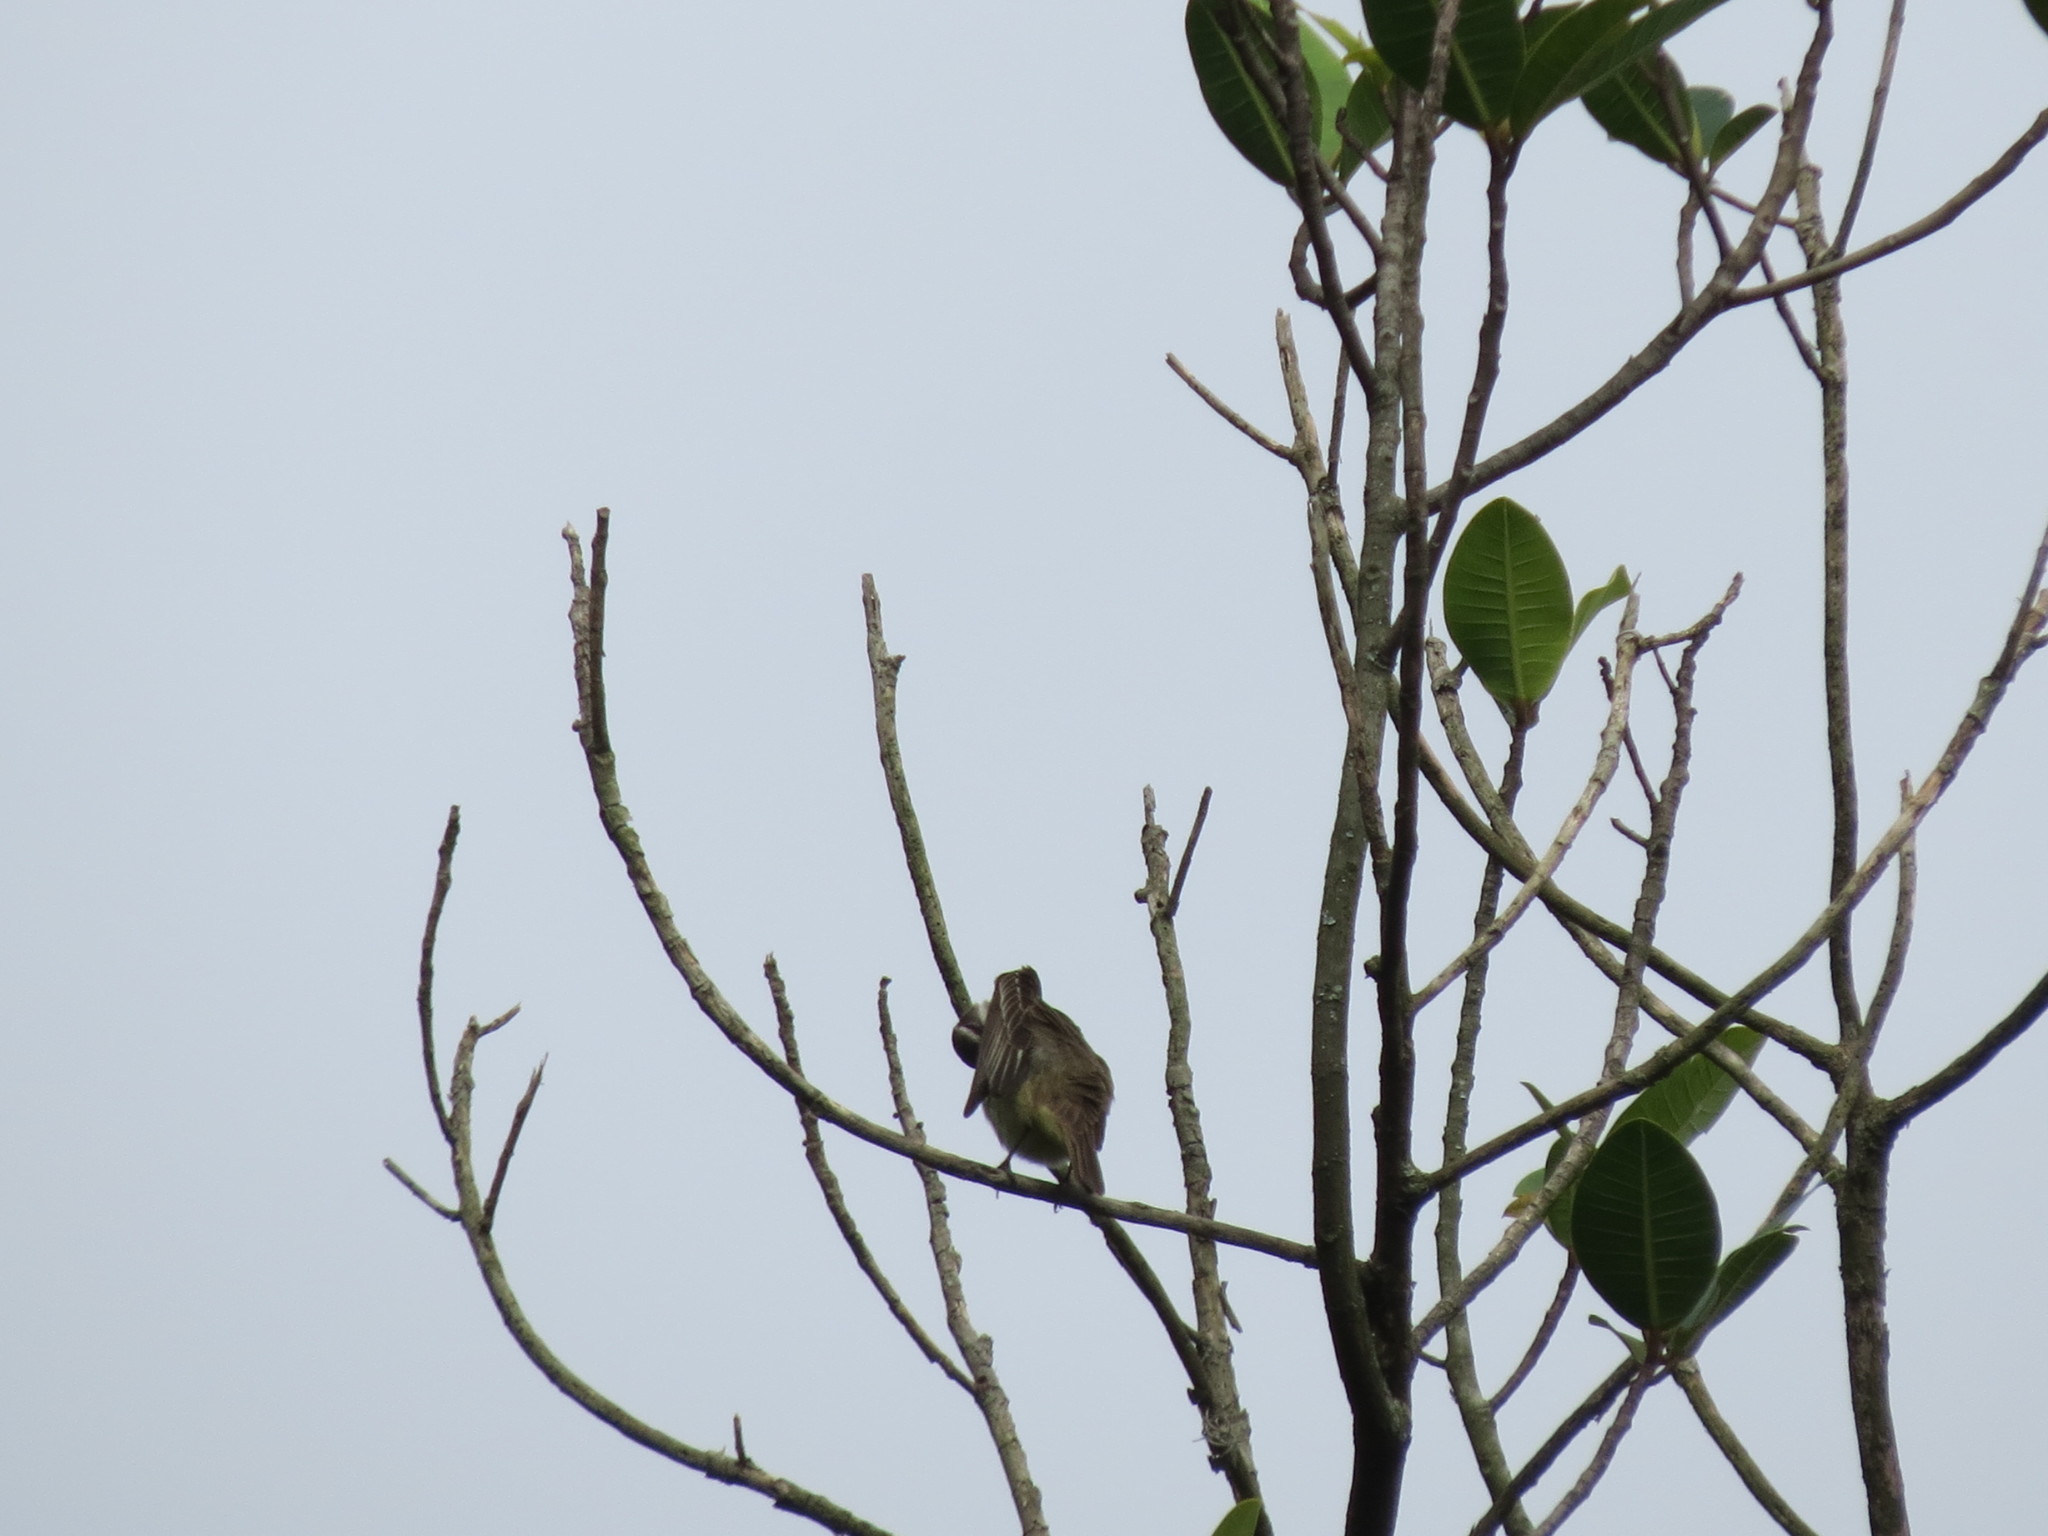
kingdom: Animalia
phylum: Chordata
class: Aves
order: Passeriformes
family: Tyrannidae
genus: Legatus
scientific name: Legatus leucophaius
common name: Piratic flycatcher
